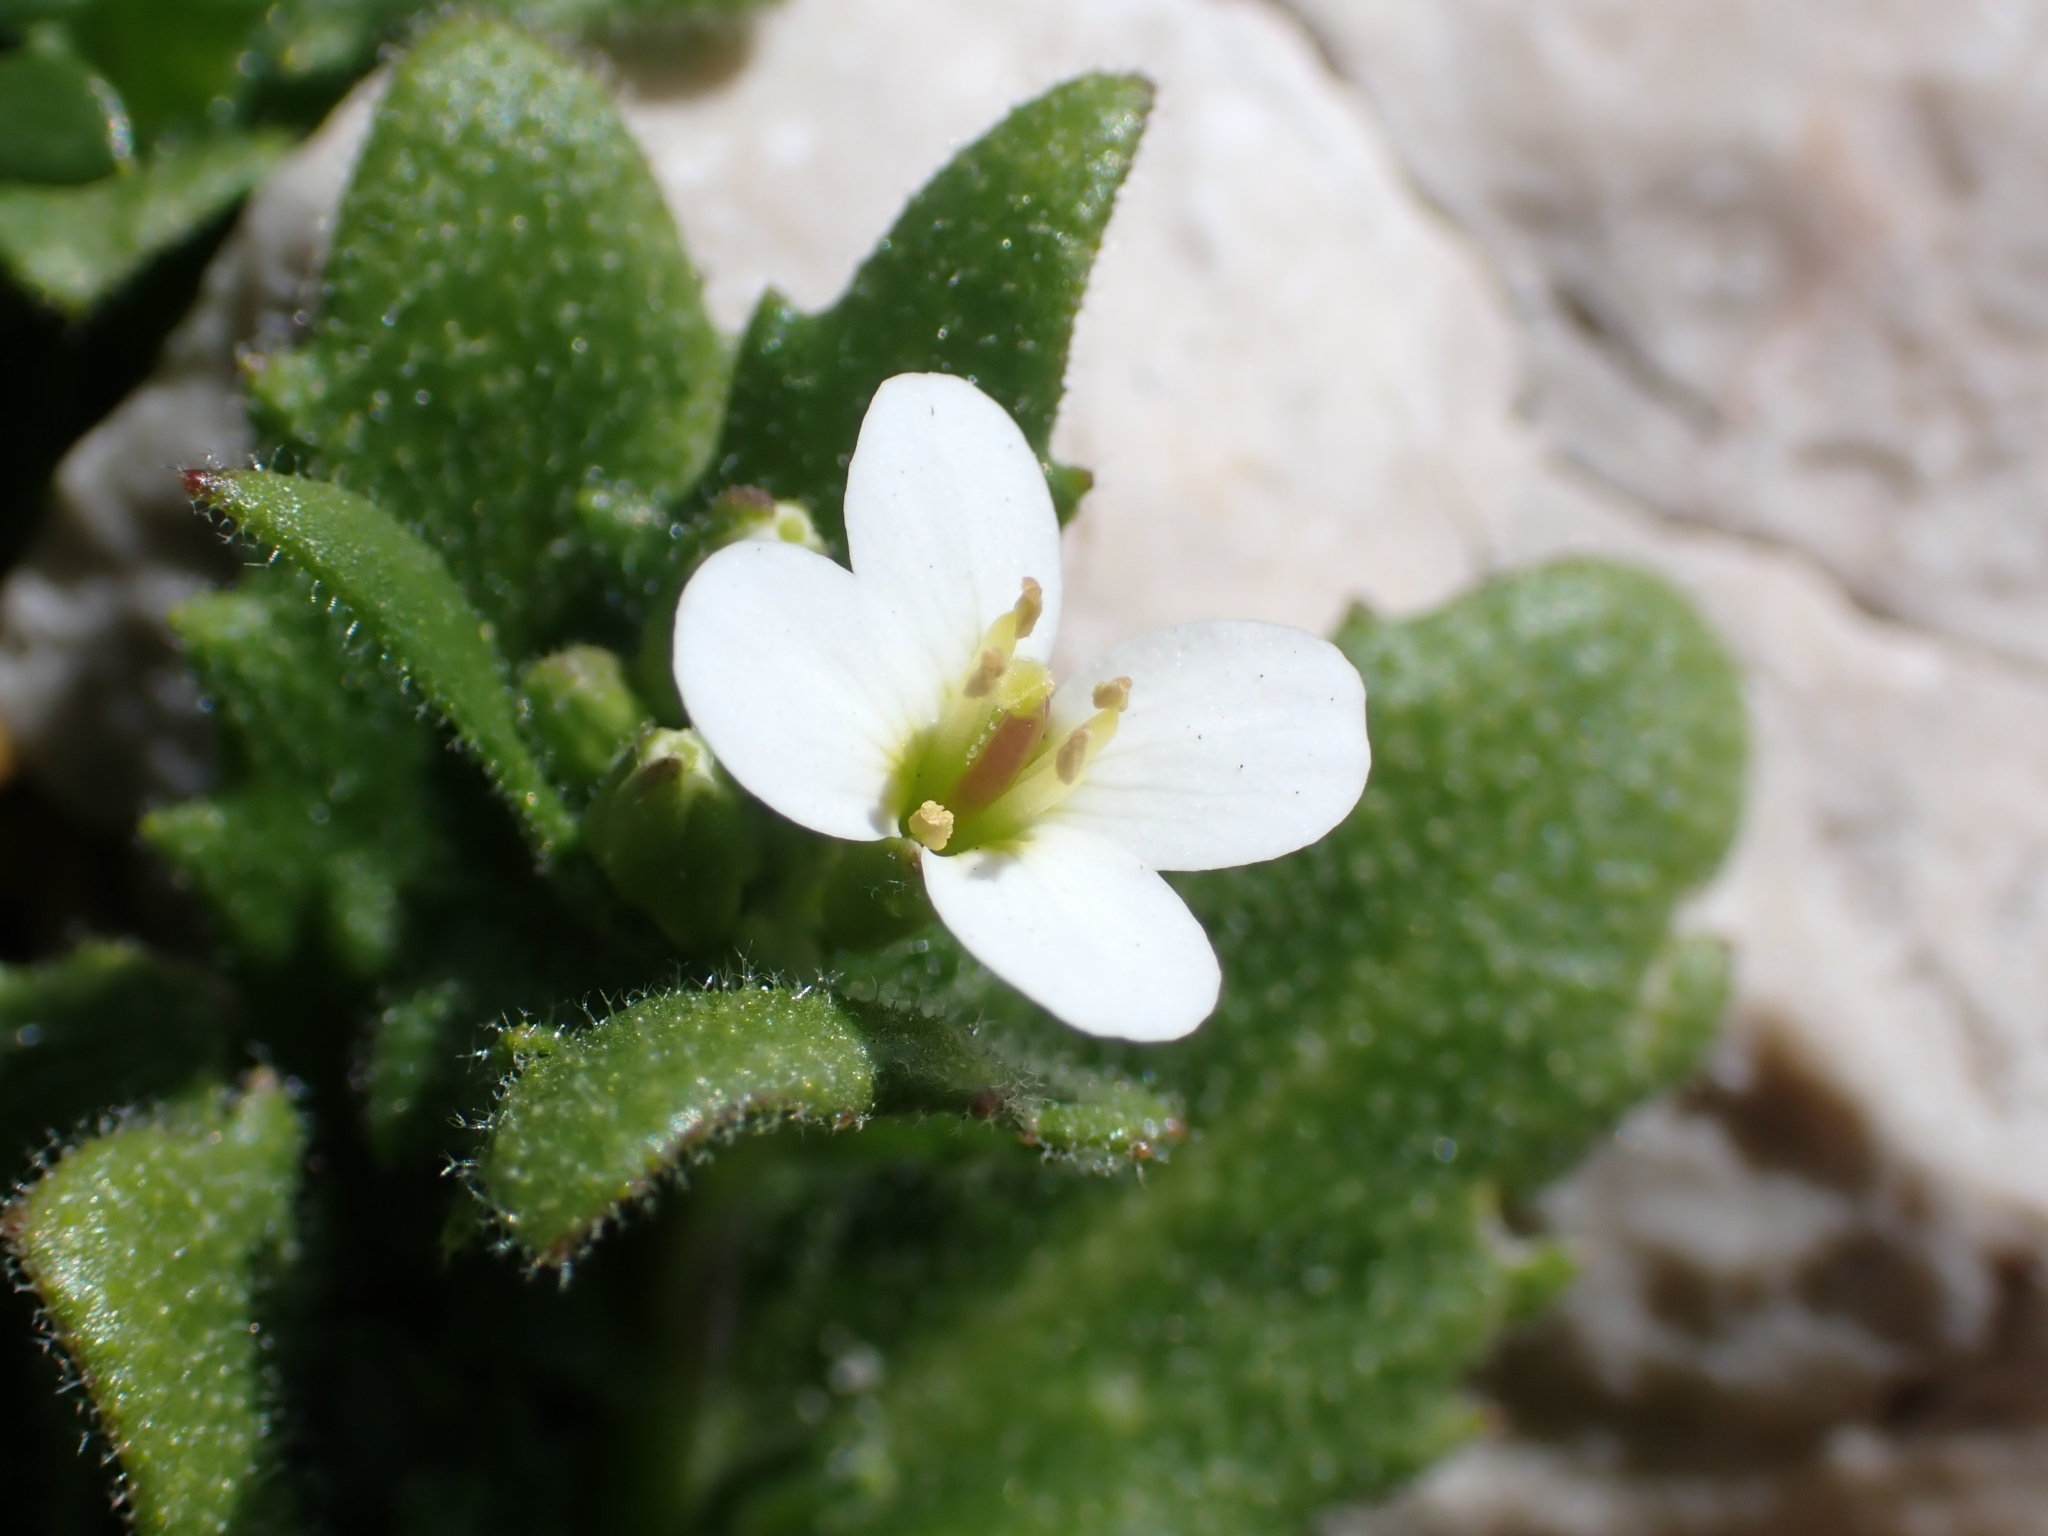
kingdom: Plantae
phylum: Tracheophyta
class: Magnoliopsida
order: Brassicales
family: Brassicaceae
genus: Hornungia
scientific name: Hornungia alpina
